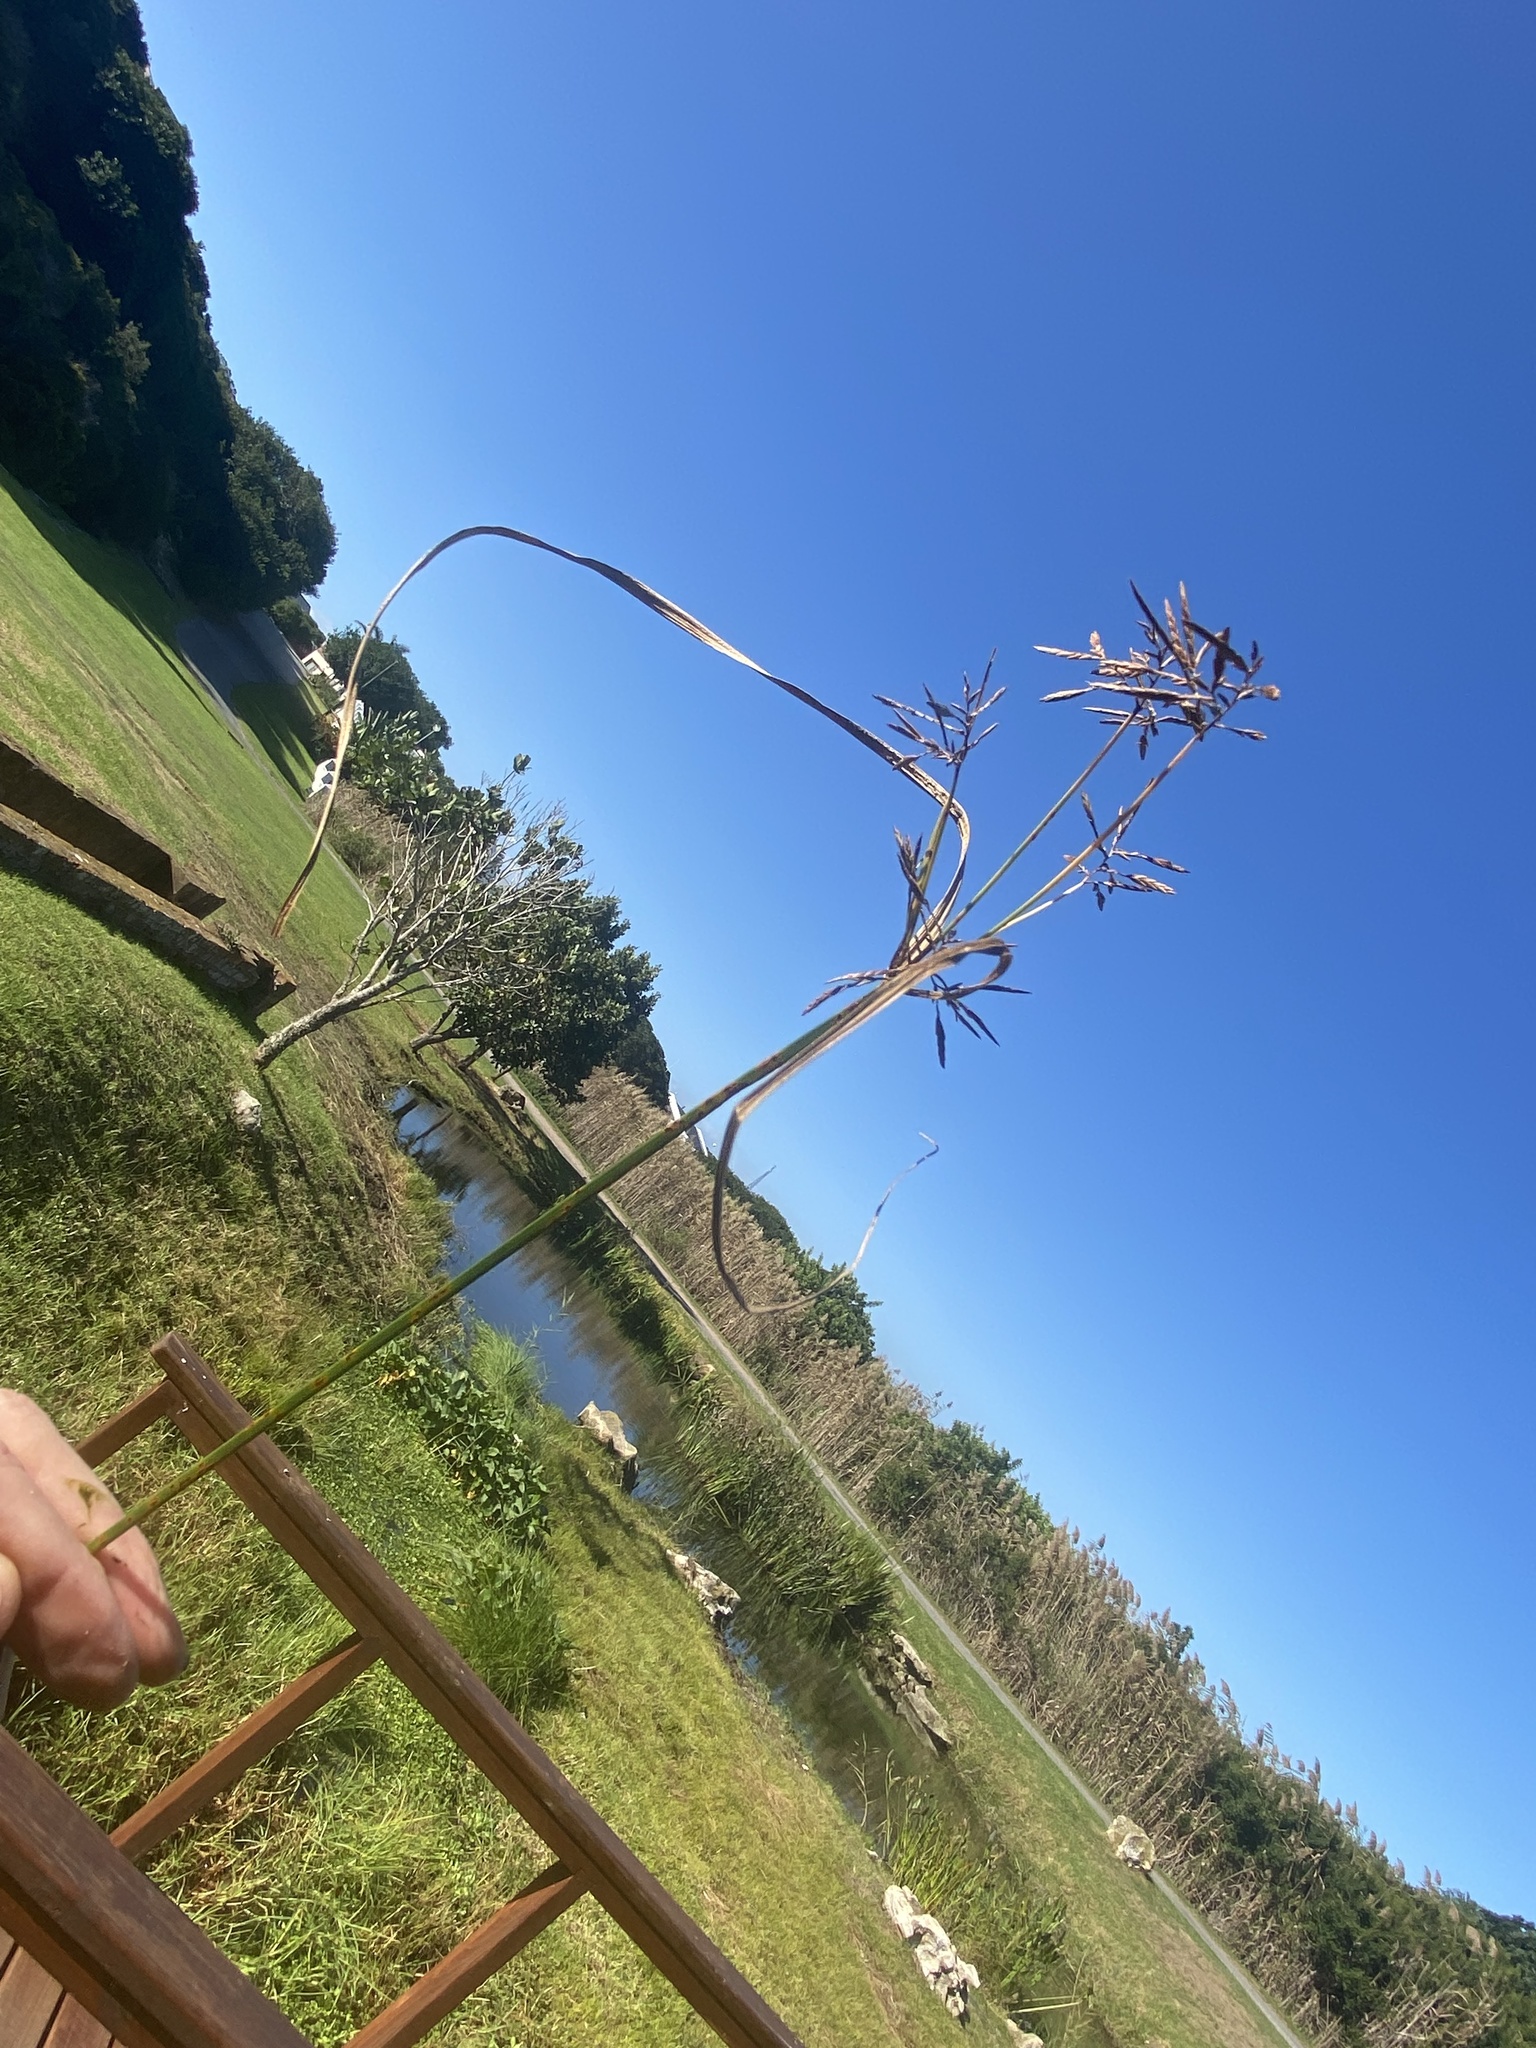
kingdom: Plantae
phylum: Tracheophyta
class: Liliopsida
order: Poales
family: Cyperaceae
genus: Cyperus
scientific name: Cyperus longus
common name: Galingale
